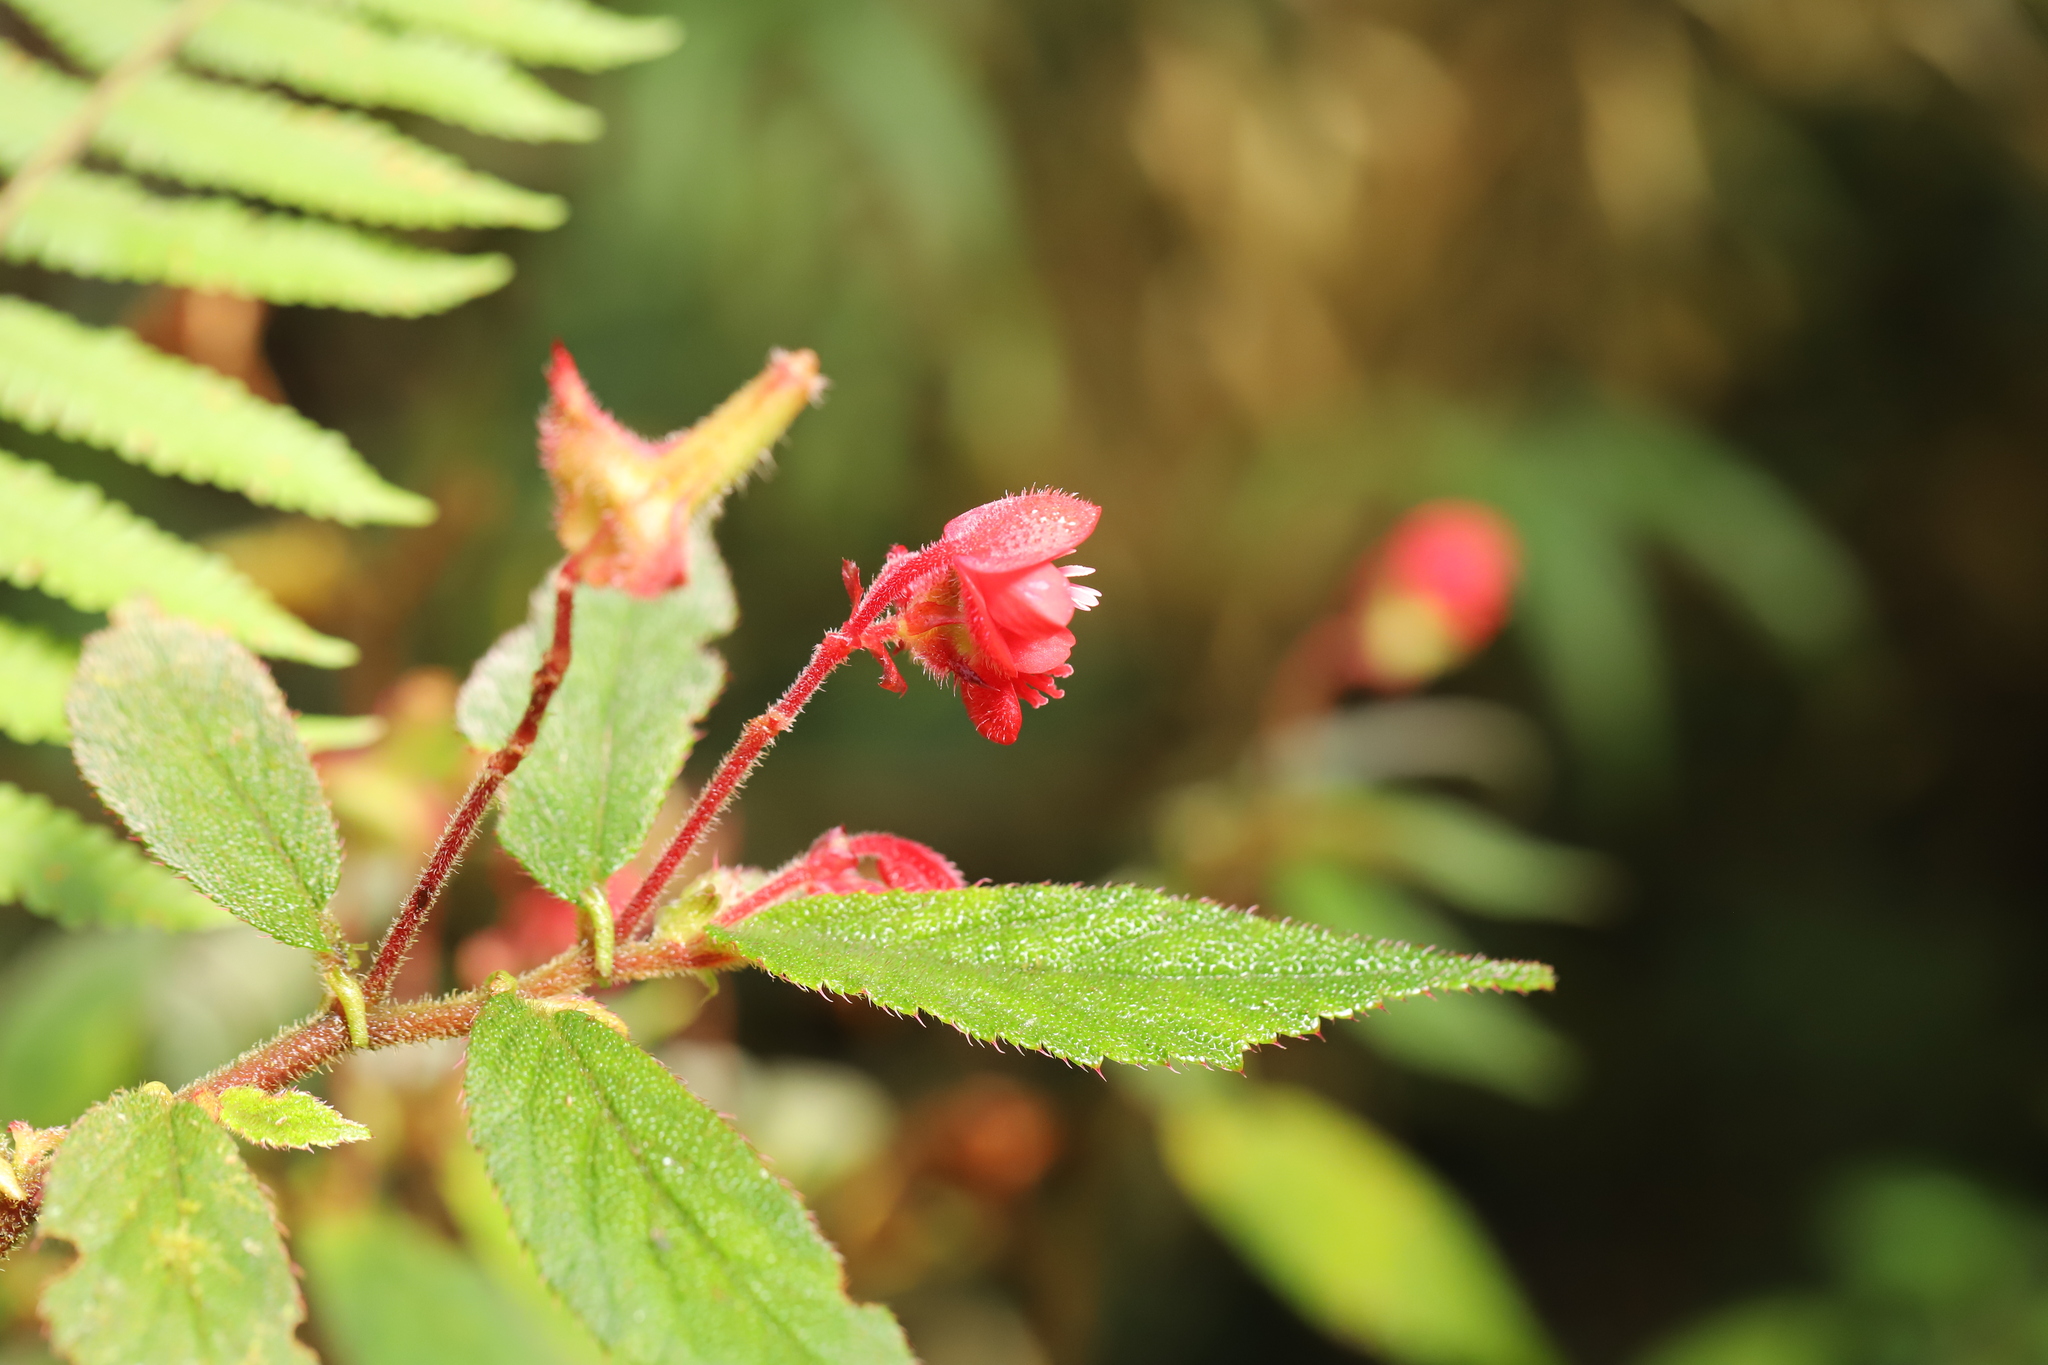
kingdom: Plantae
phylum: Tracheophyta
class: Magnoliopsida
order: Cucurbitales
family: Begoniaceae
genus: Begonia
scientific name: Begonia urticae
